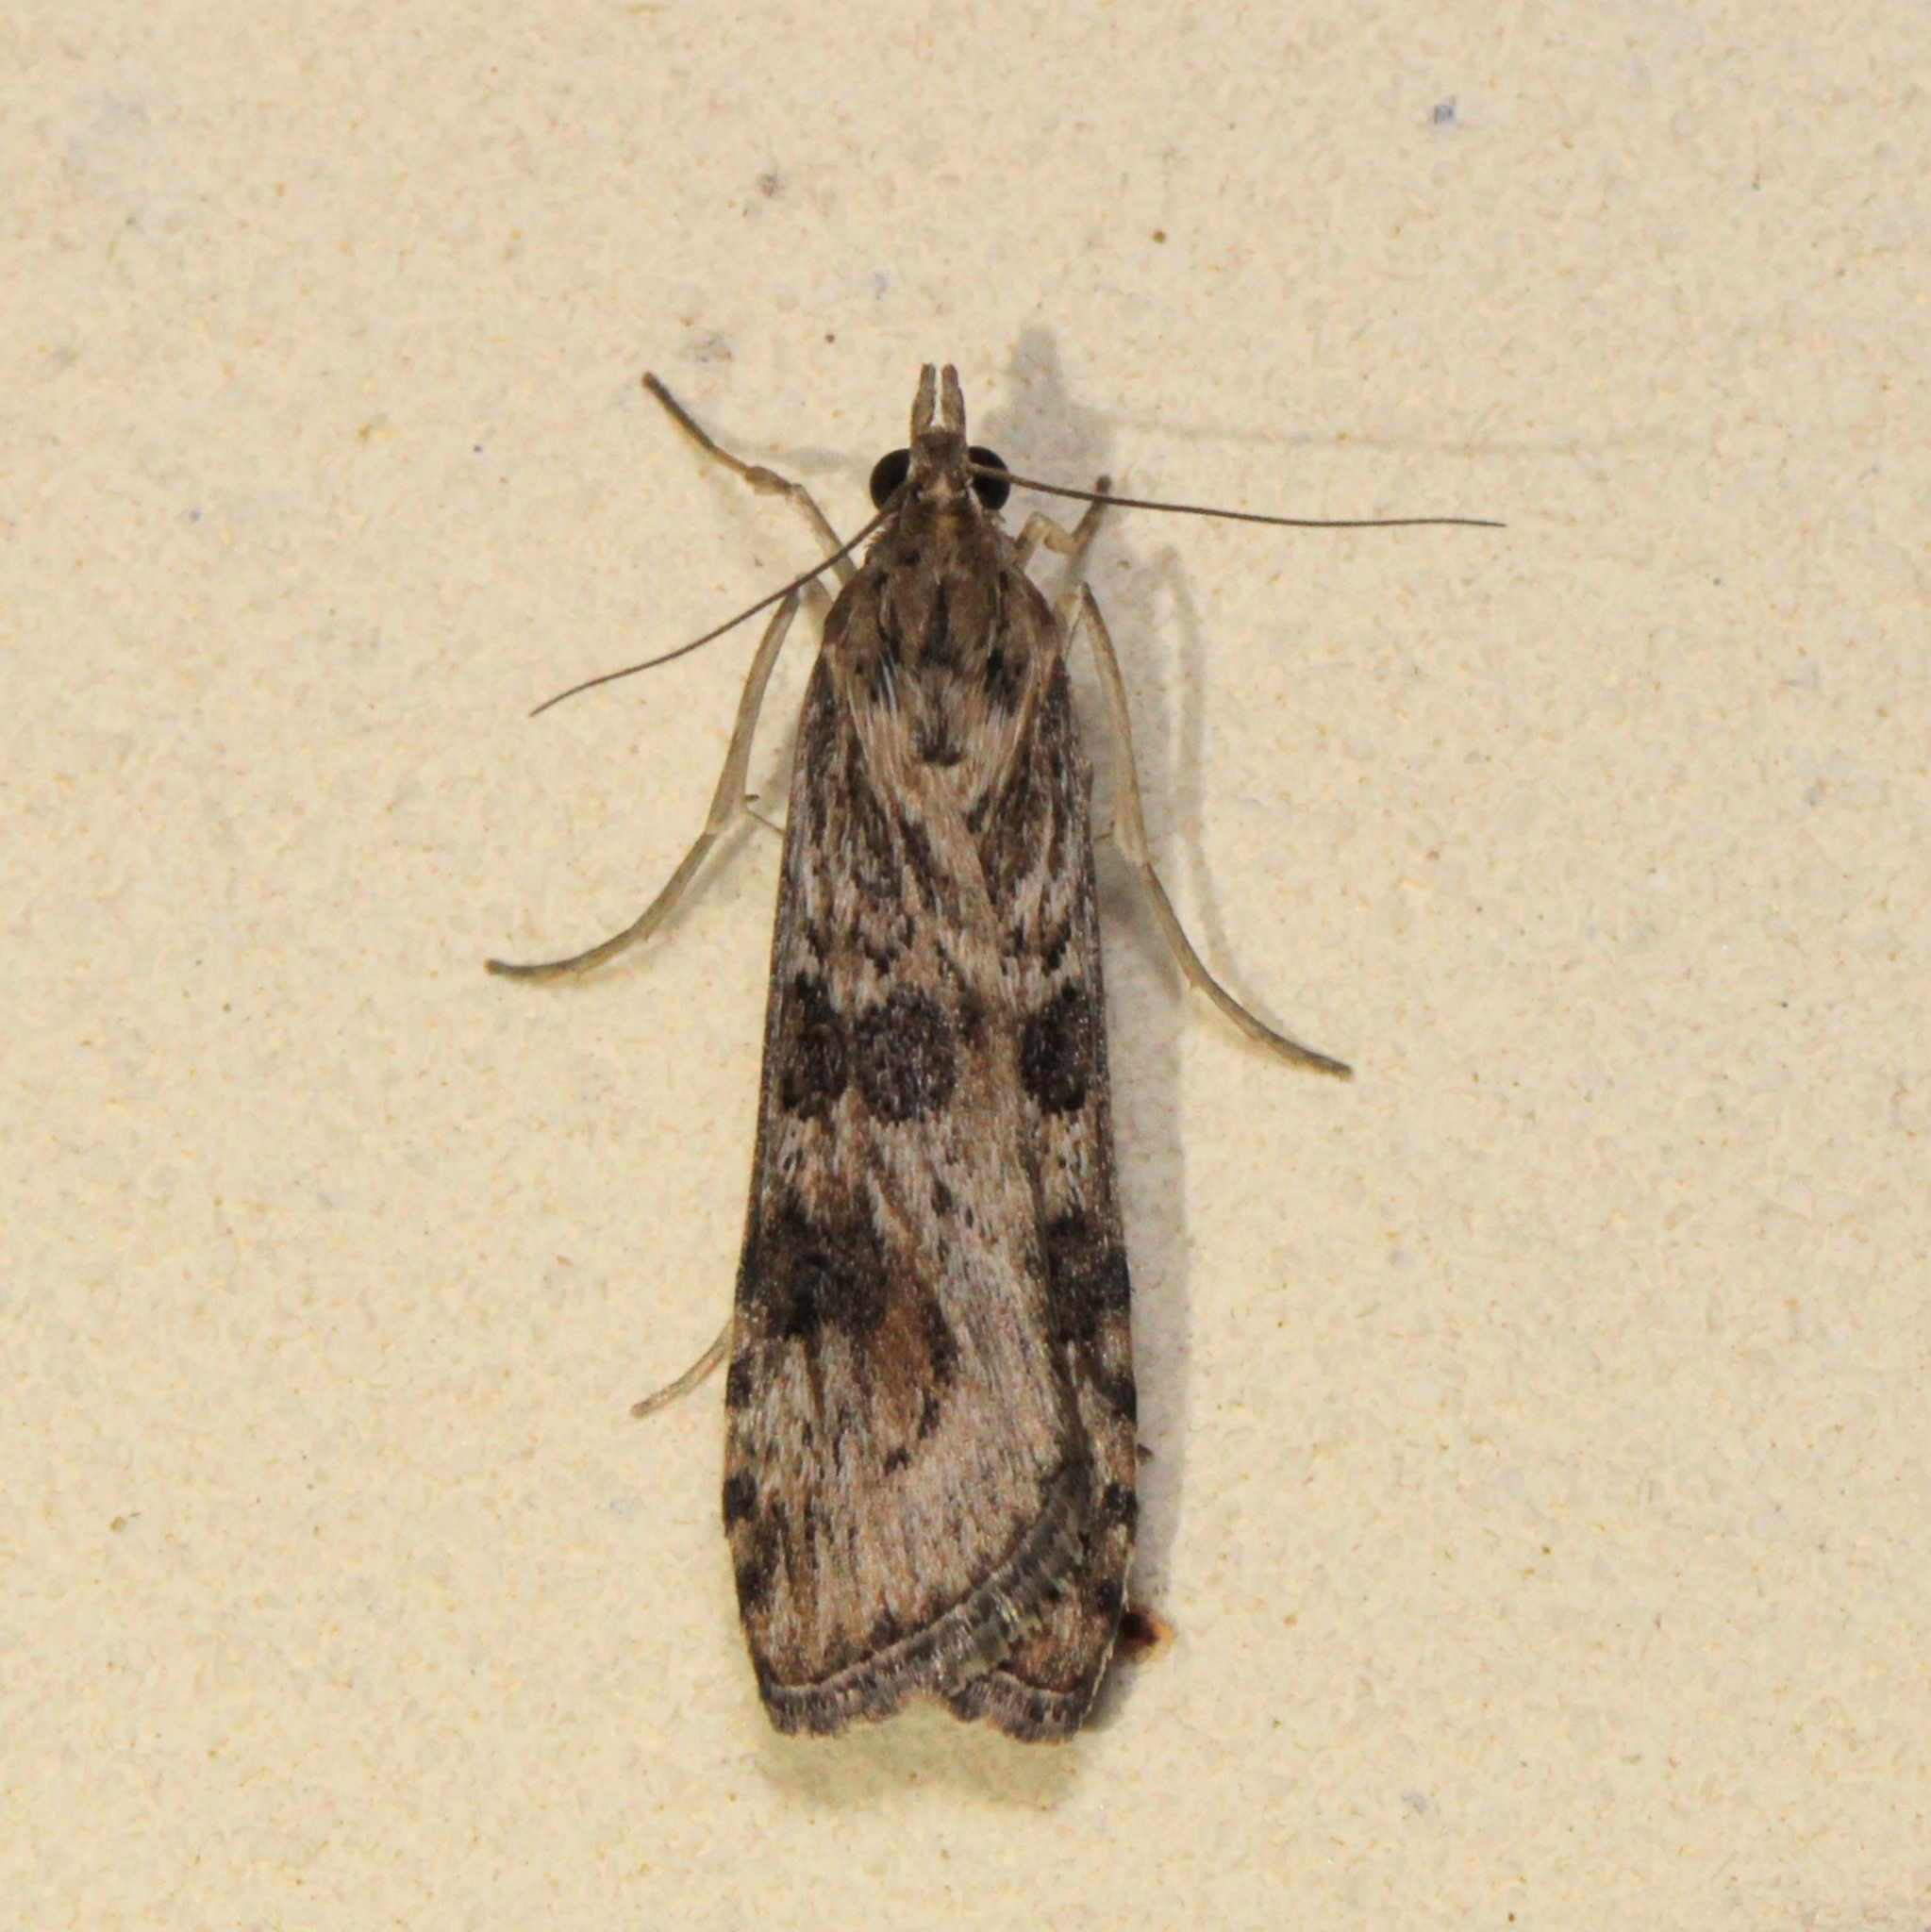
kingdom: Animalia
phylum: Arthropoda
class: Insecta
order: Lepidoptera
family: Crambidae
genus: Nomophila
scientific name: Nomophila nearctica
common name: American rush veneer
